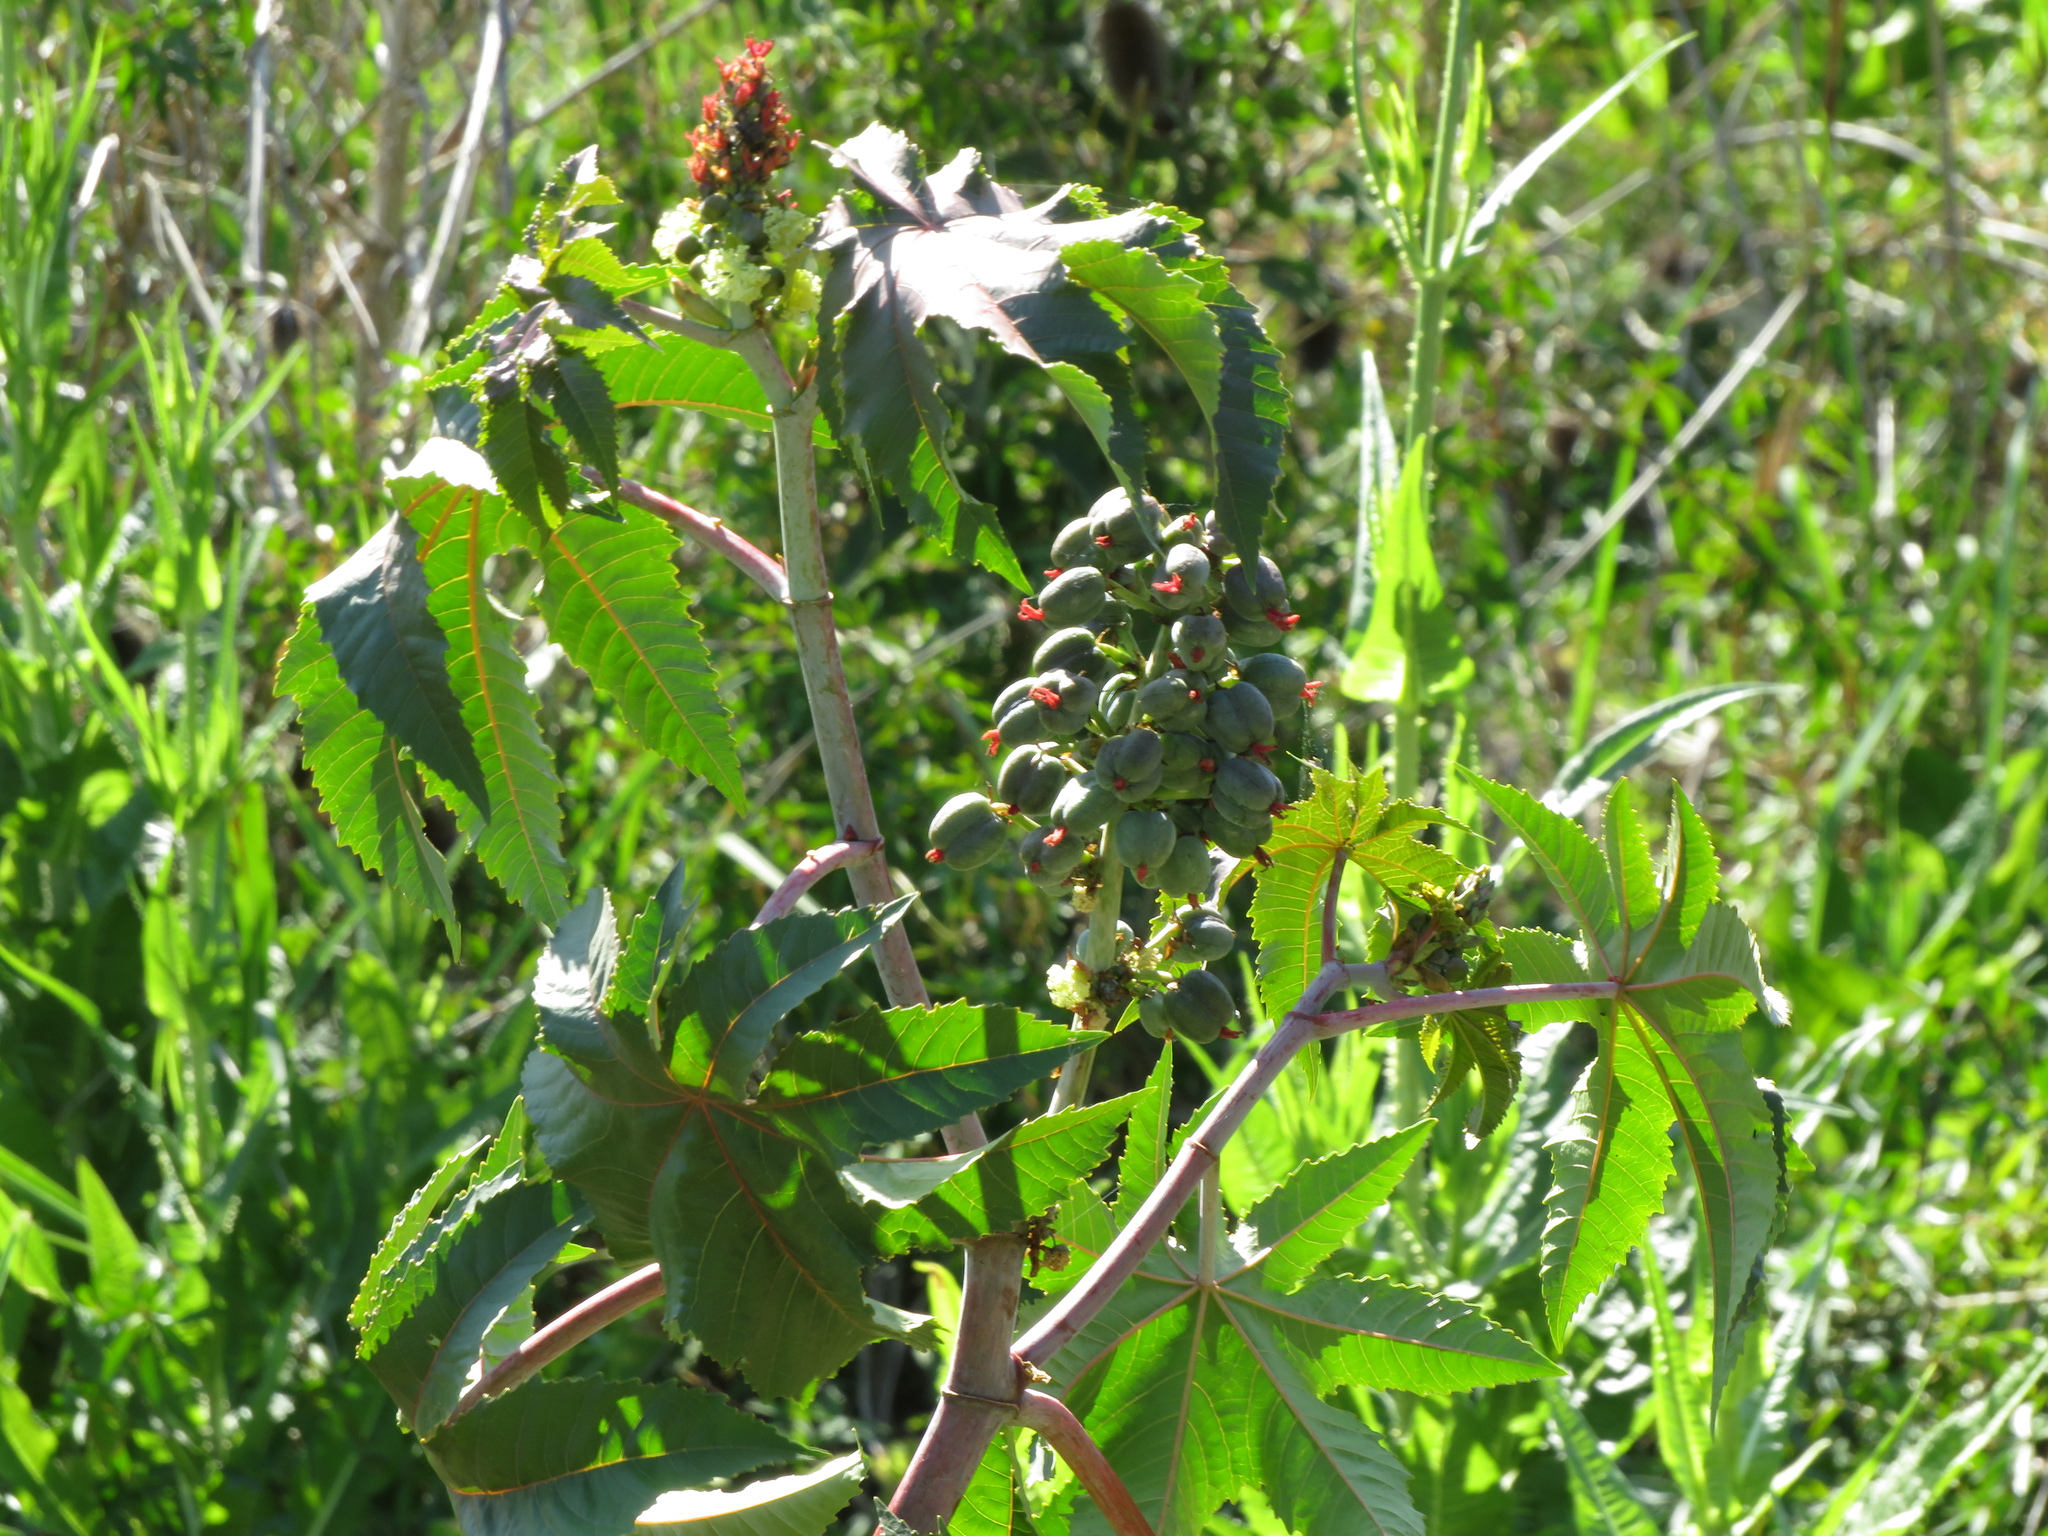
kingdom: Plantae
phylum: Tracheophyta
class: Magnoliopsida
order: Malpighiales
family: Euphorbiaceae
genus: Ricinus
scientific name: Ricinus communis
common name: Castor-oil-plant
